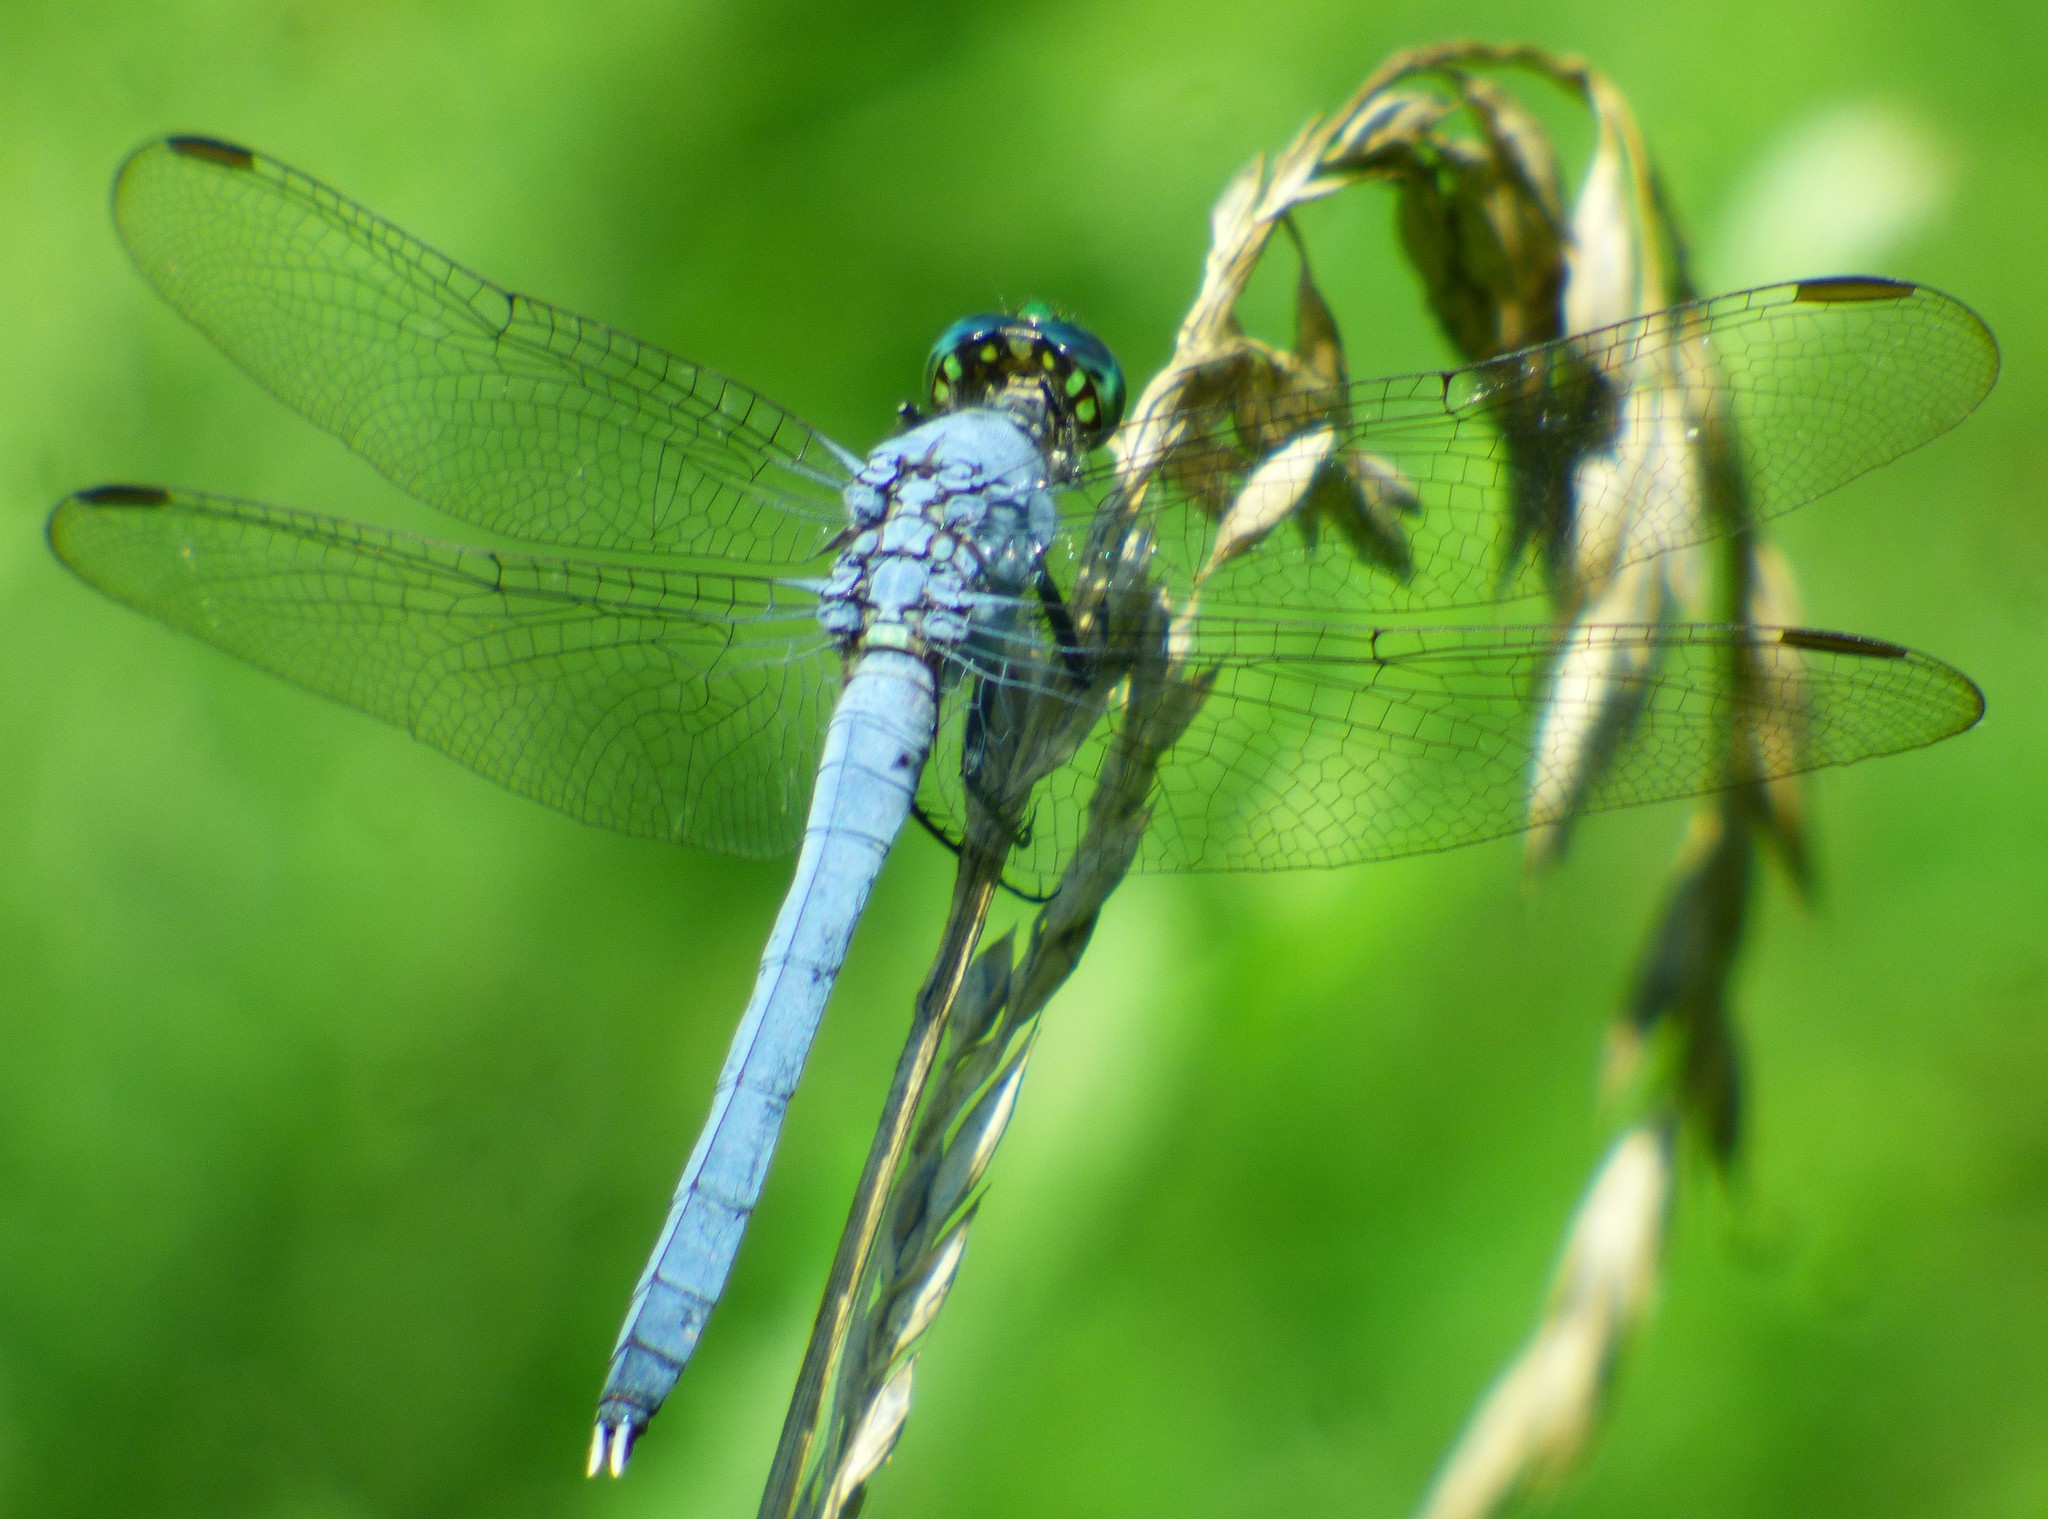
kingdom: Animalia
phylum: Arthropoda
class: Insecta
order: Odonata
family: Libellulidae
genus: Erythemis
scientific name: Erythemis simplicicollis
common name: Eastern pondhawk
